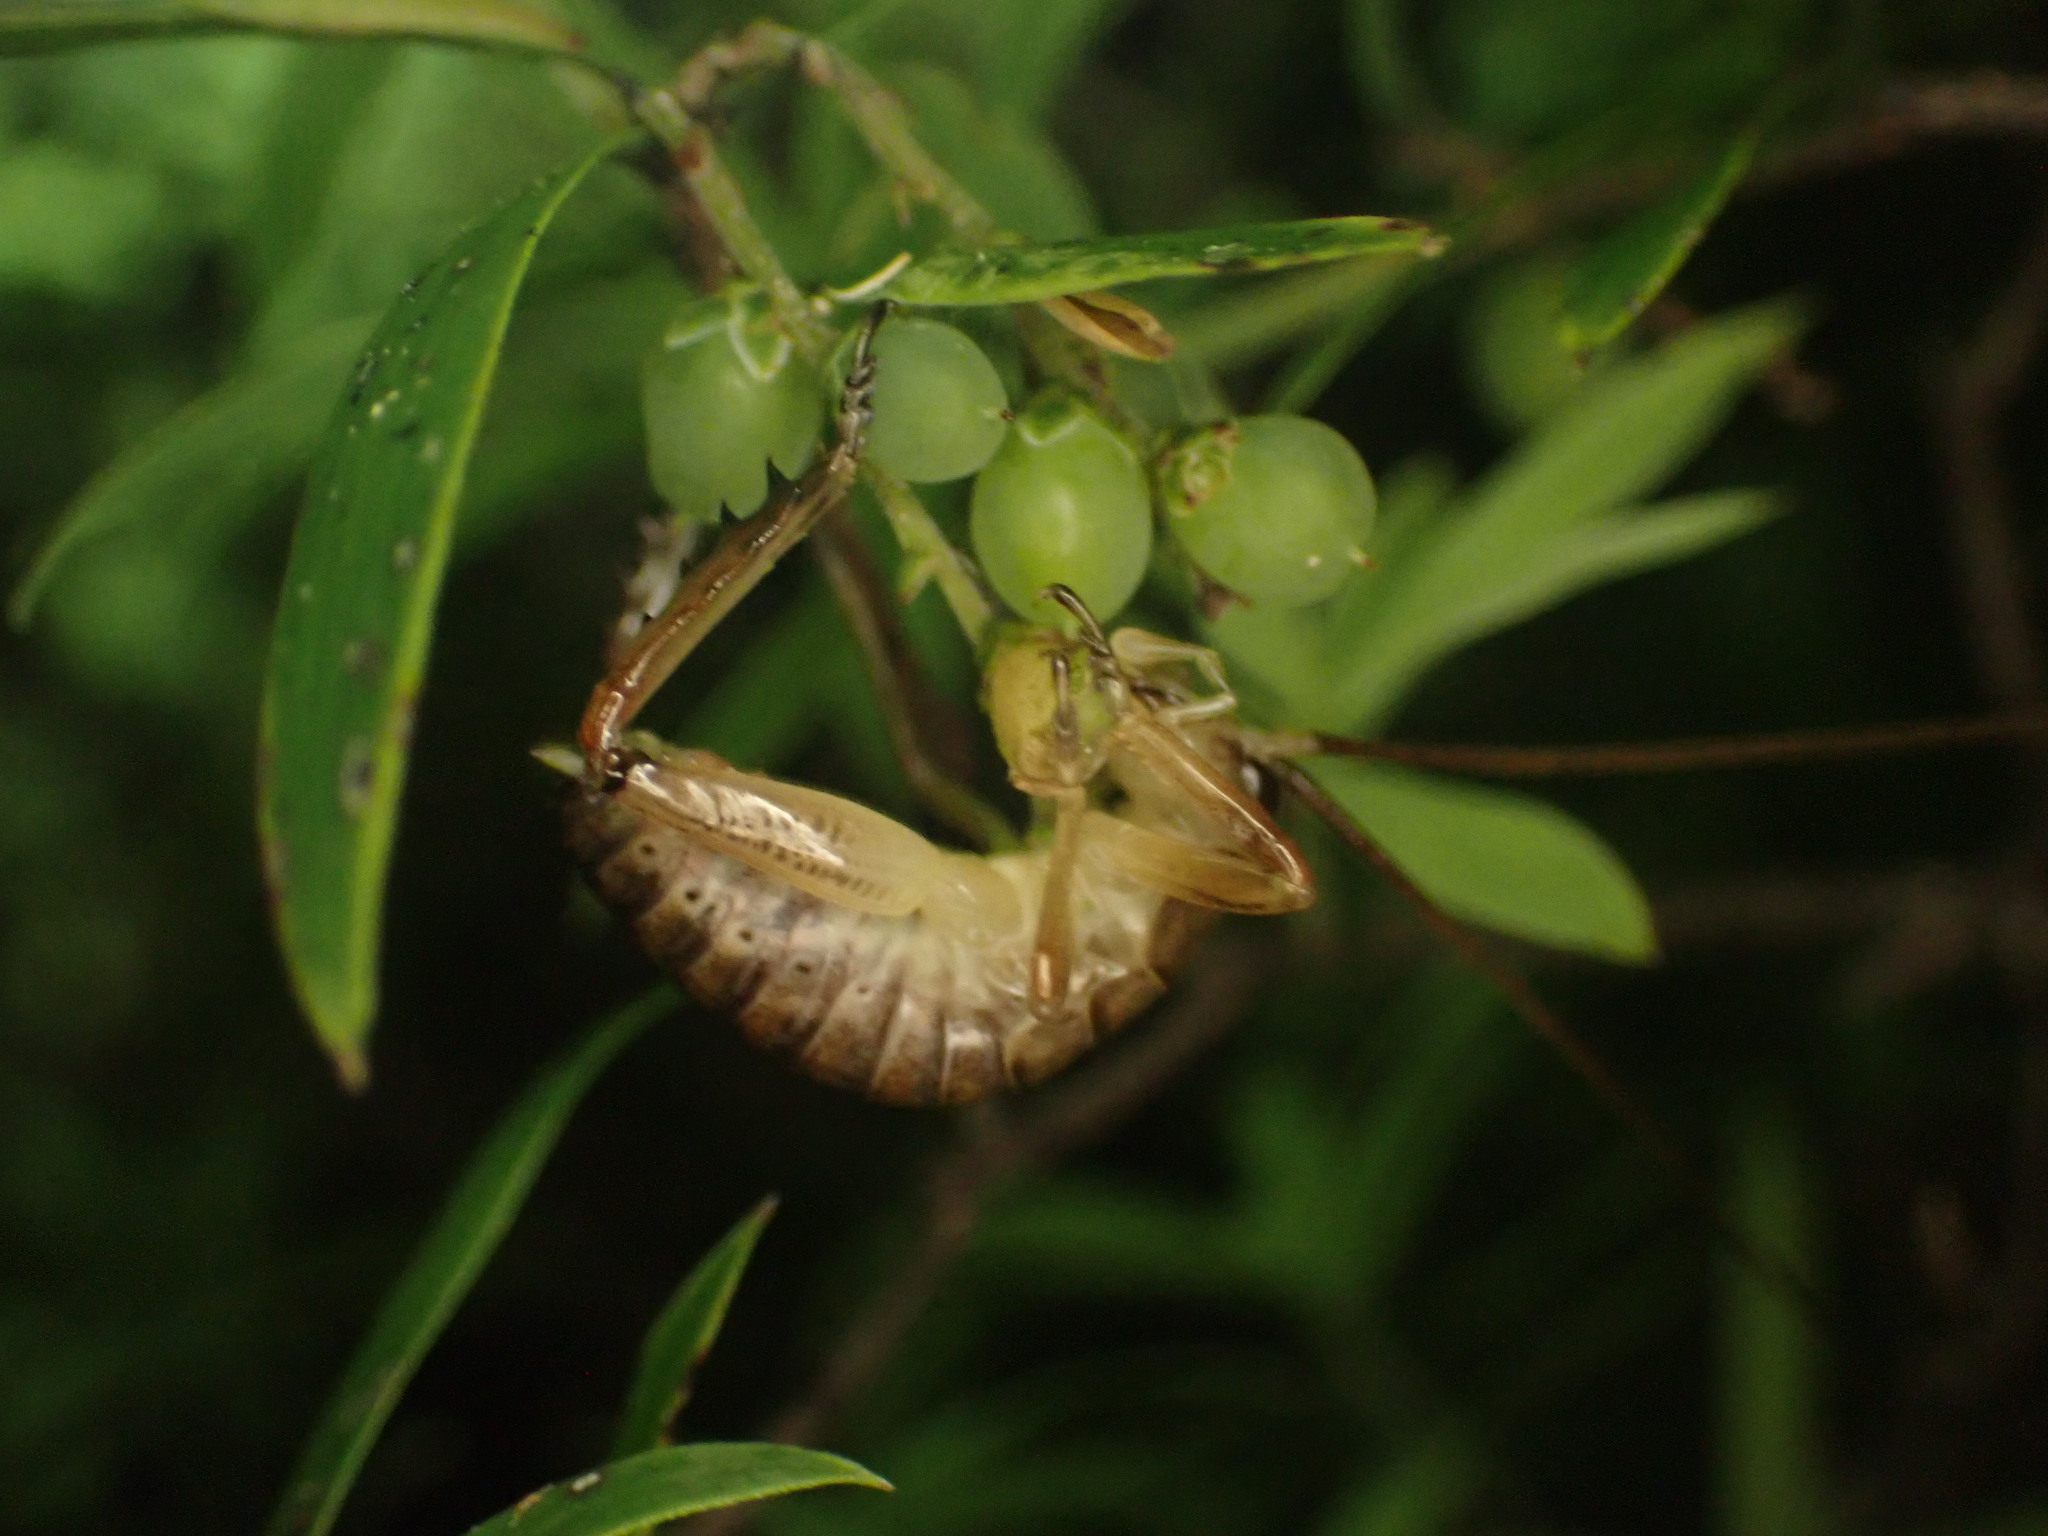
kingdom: Animalia
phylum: Arthropoda
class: Insecta
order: Orthoptera
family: Anostostomatidae
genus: Hemideina
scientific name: Hemideina thoracica
